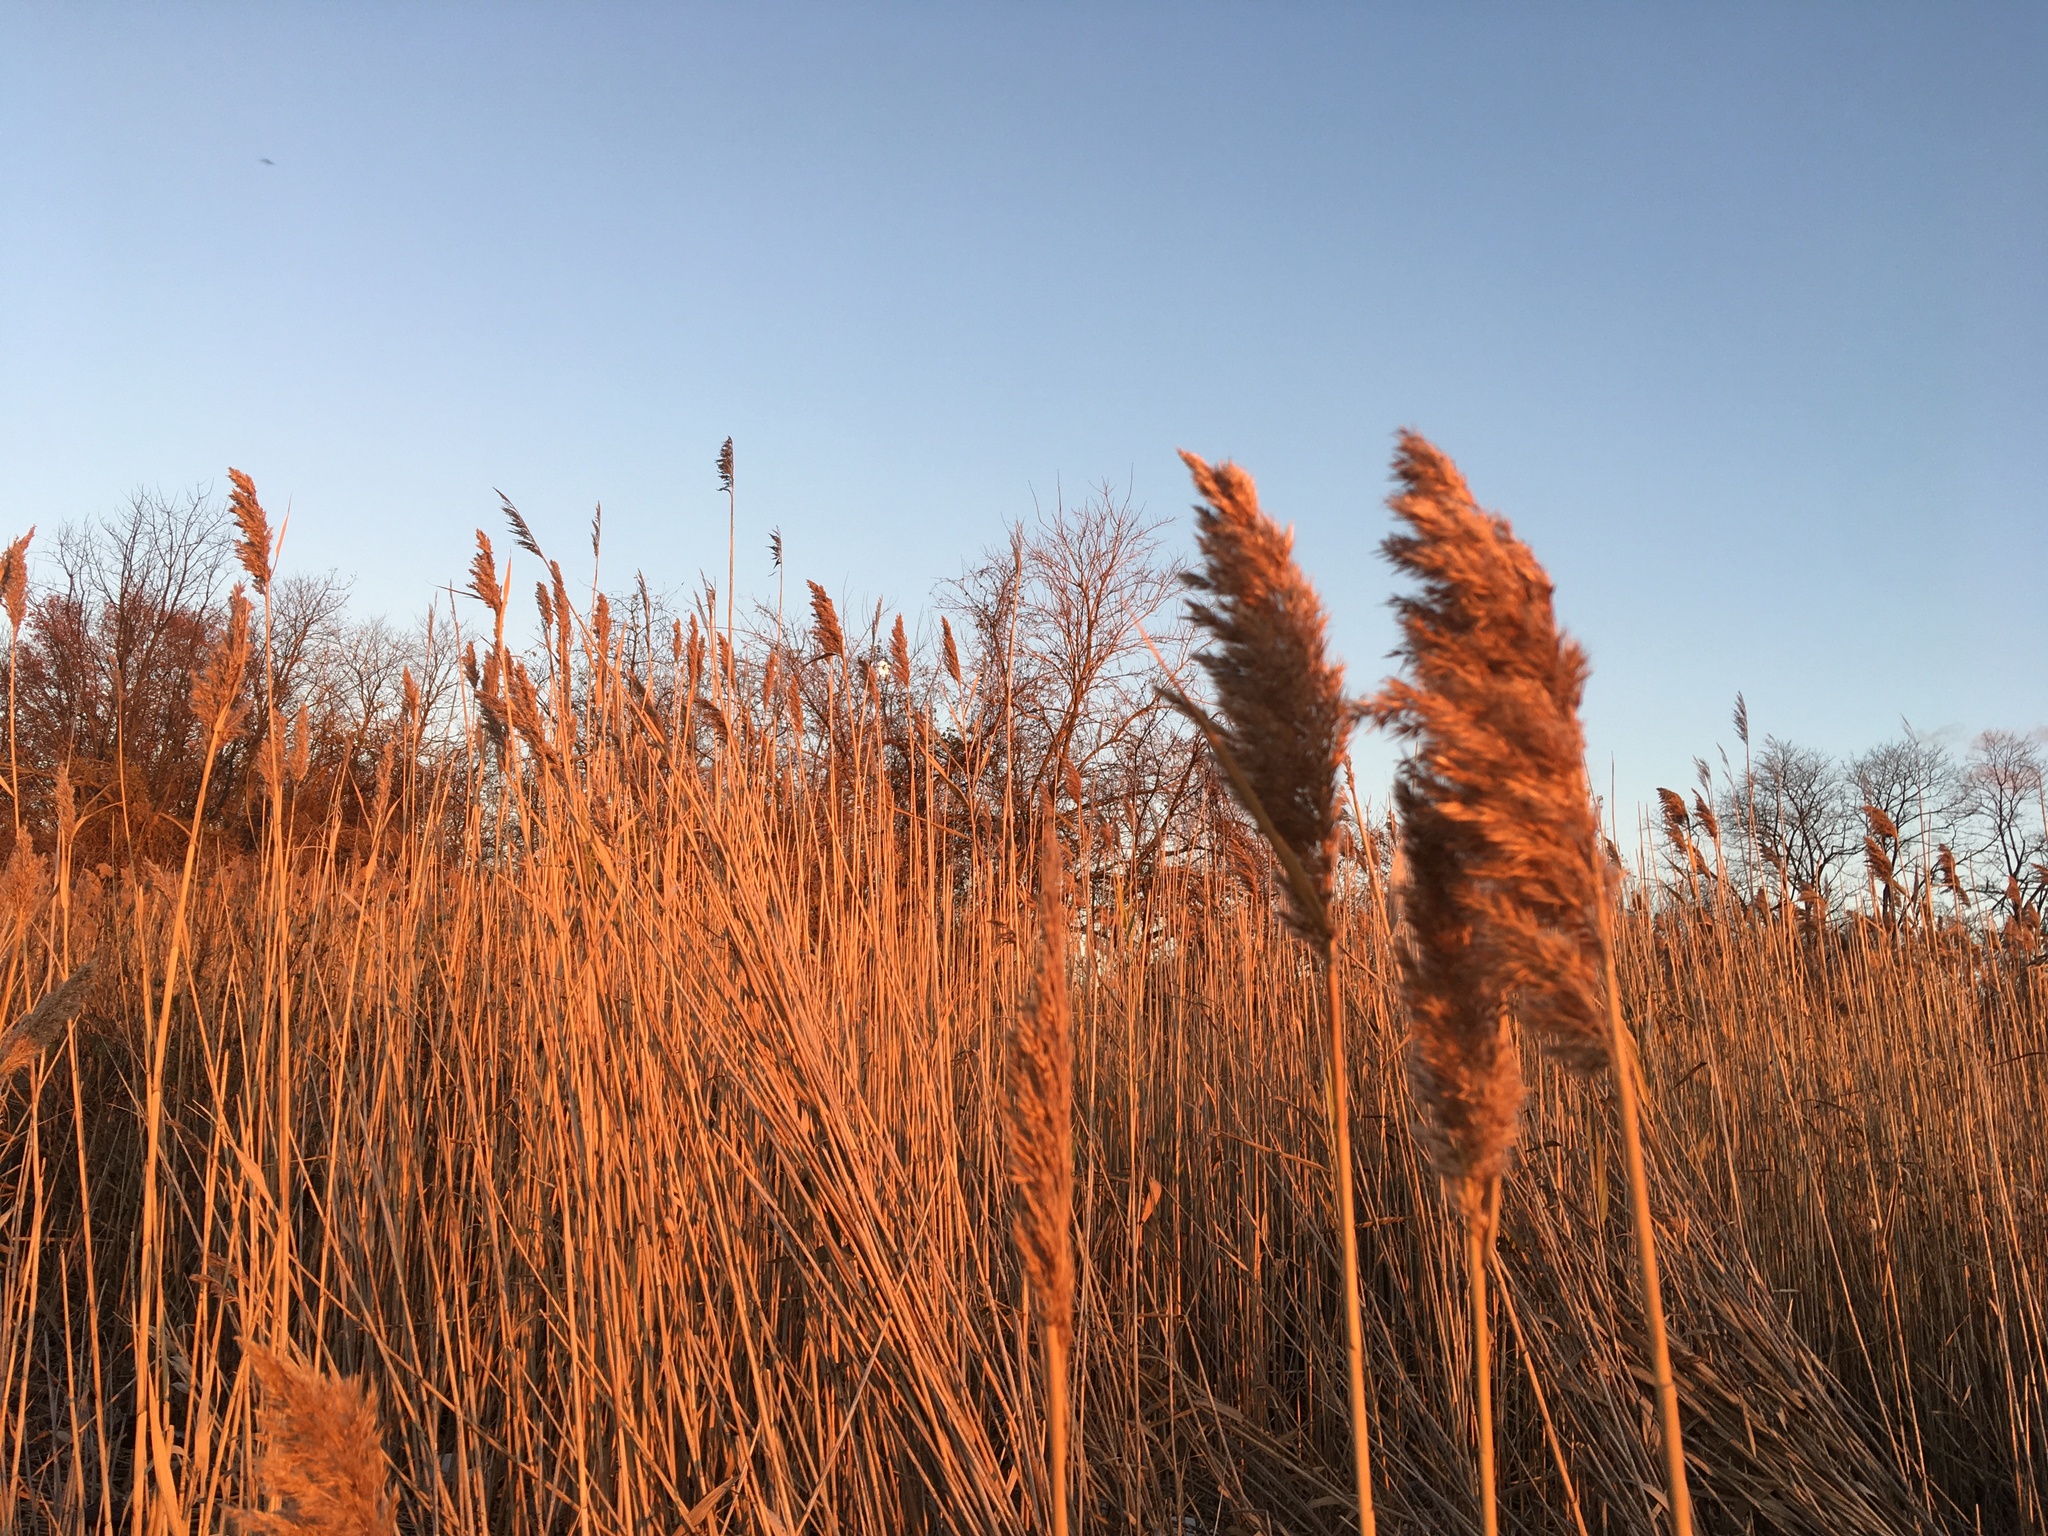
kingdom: Plantae
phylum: Tracheophyta
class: Liliopsida
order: Poales
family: Poaceae
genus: Phragmites
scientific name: Phragmites australis
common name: Common reed
